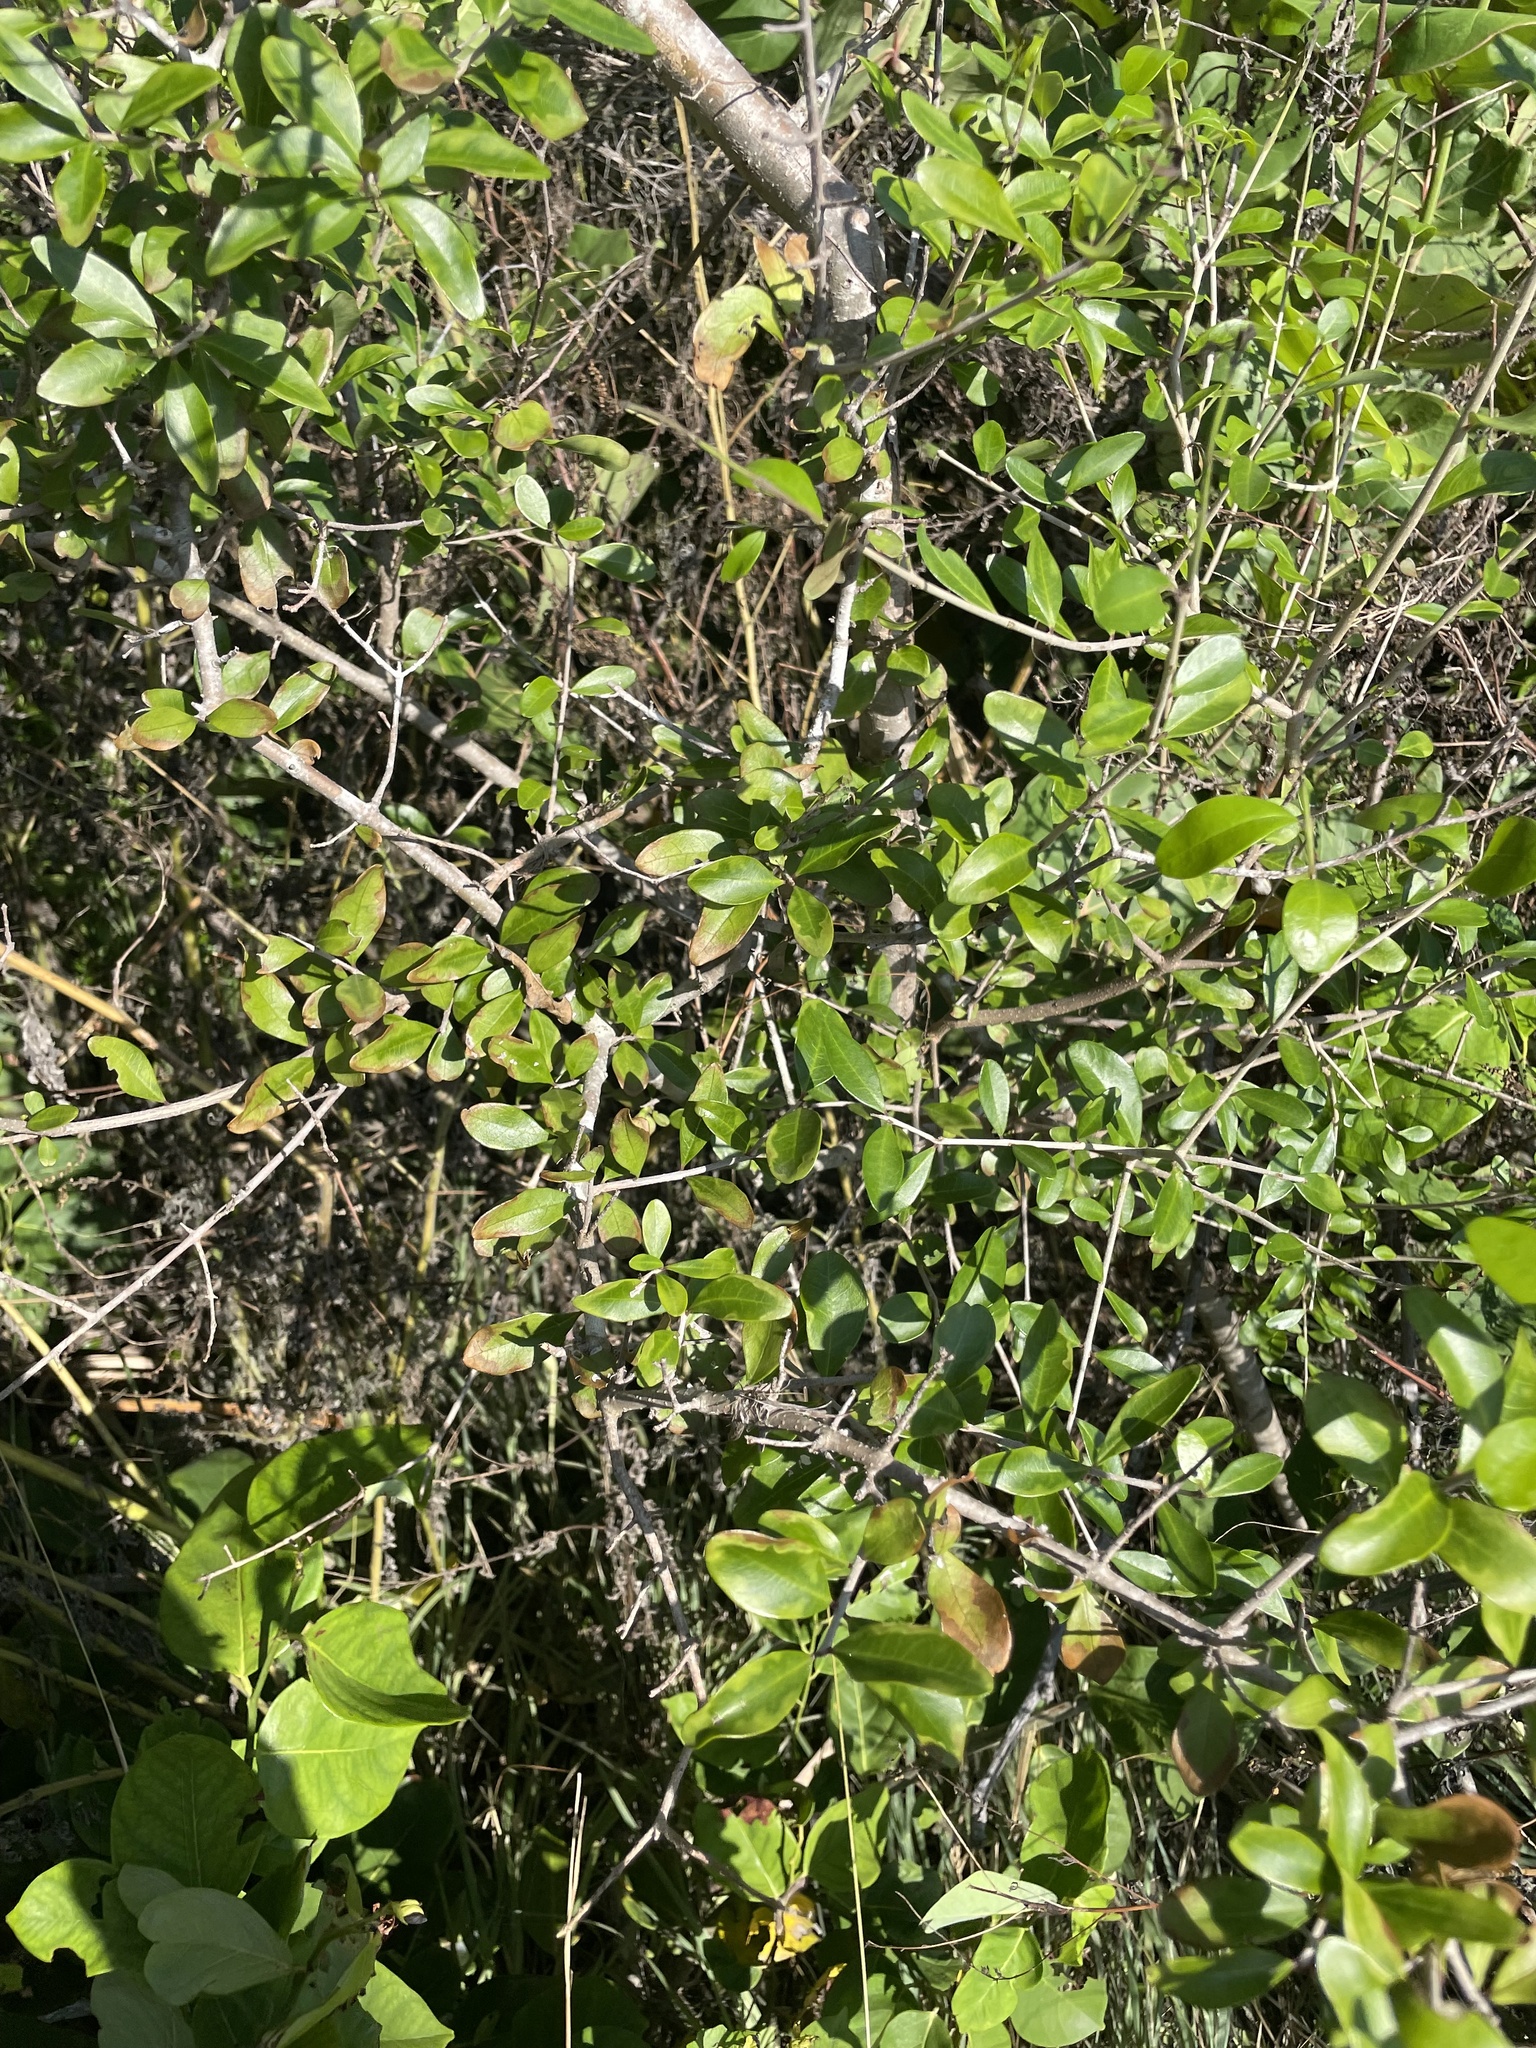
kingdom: Plantae
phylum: Tracheophyta
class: Magnoliopsida
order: Lamiales
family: Oleaceae
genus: Forestiera
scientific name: Forestiera segregata
